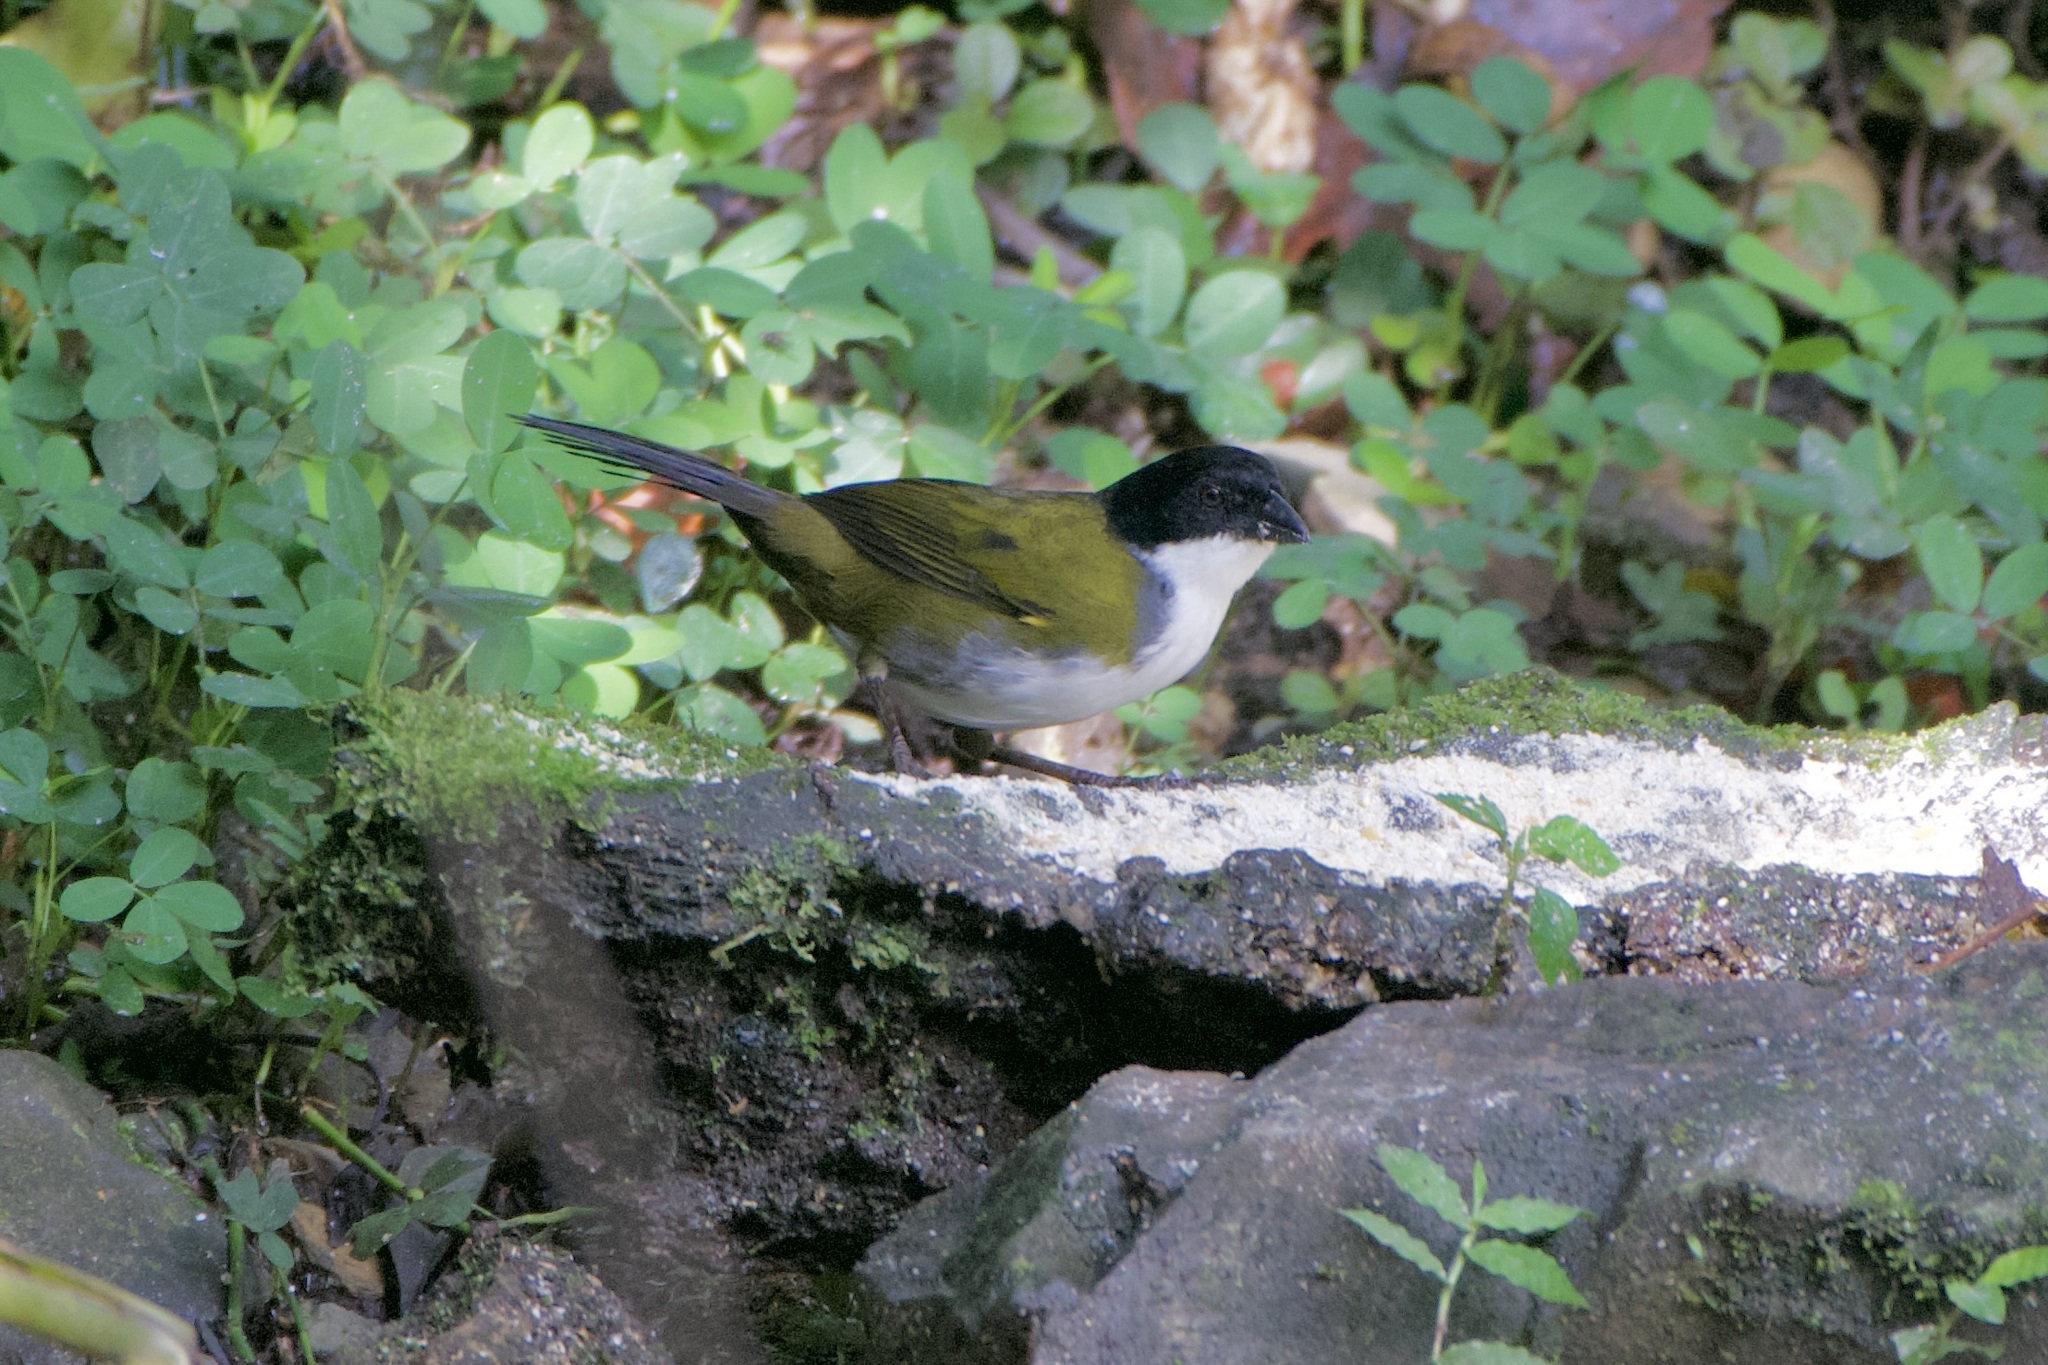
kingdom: Animalia
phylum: Chordata
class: Aves
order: Passeriformes
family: Passerellidae
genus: Arremon
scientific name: Arremon atricapillus
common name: Black-headed brushfinch
